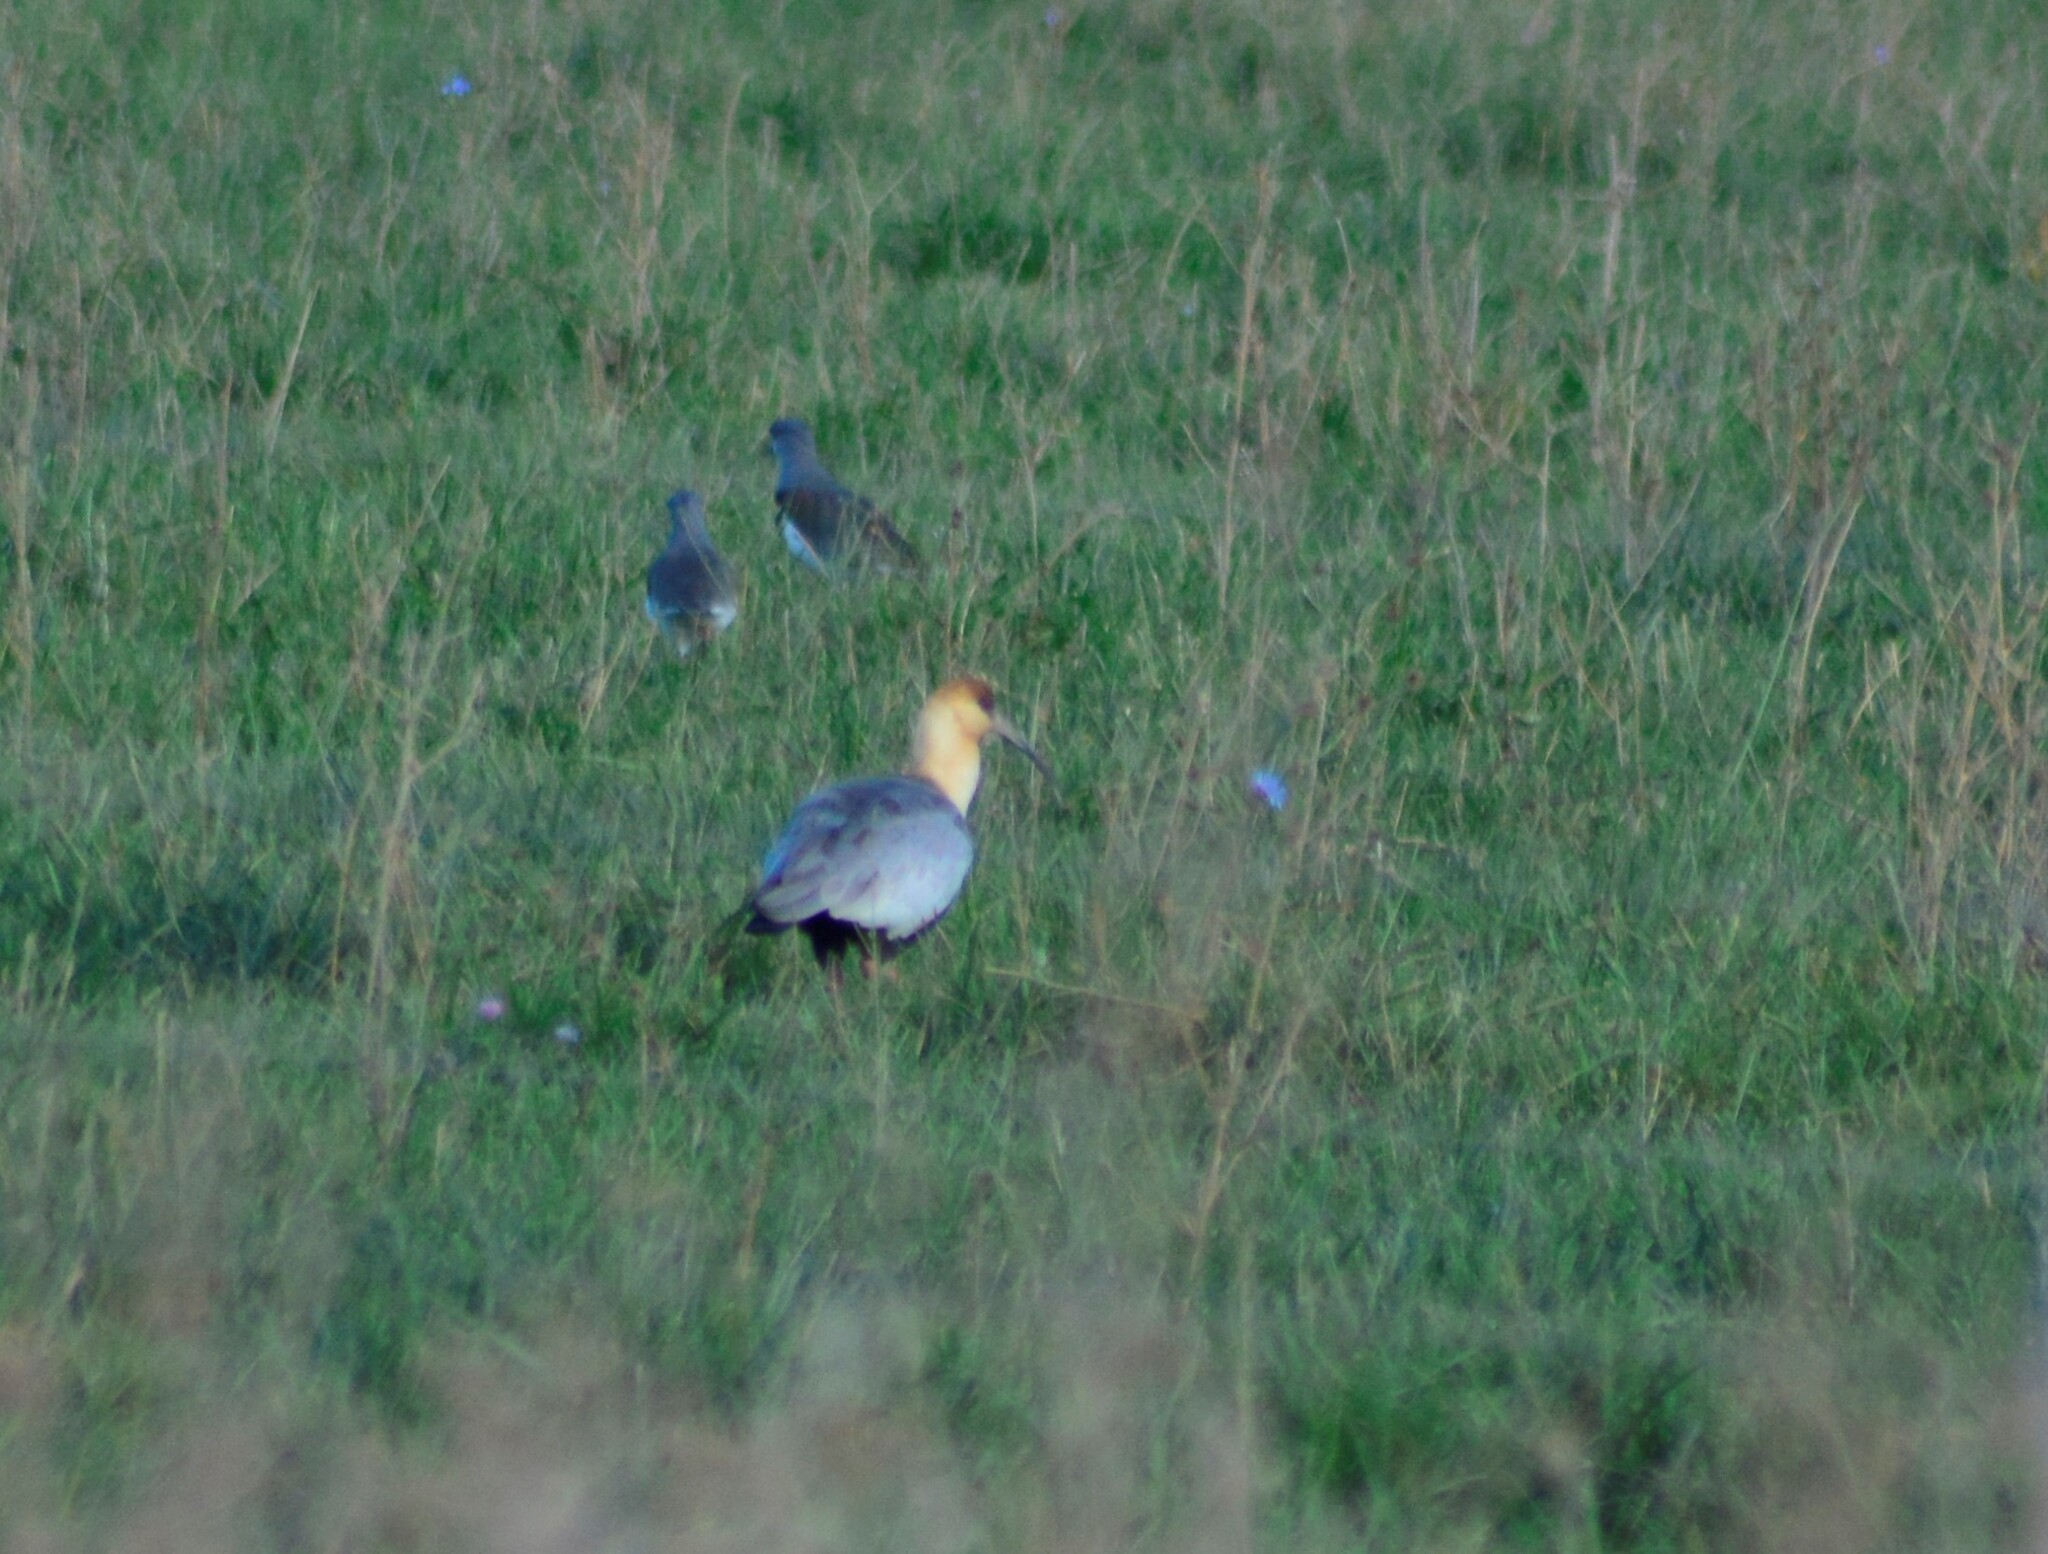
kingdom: Animalia
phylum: Chordata
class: Aves
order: Pelecaniformes
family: Threskiornithidae
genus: Theristicus
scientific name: Theristicus melanopis
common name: Black-faced ibis
